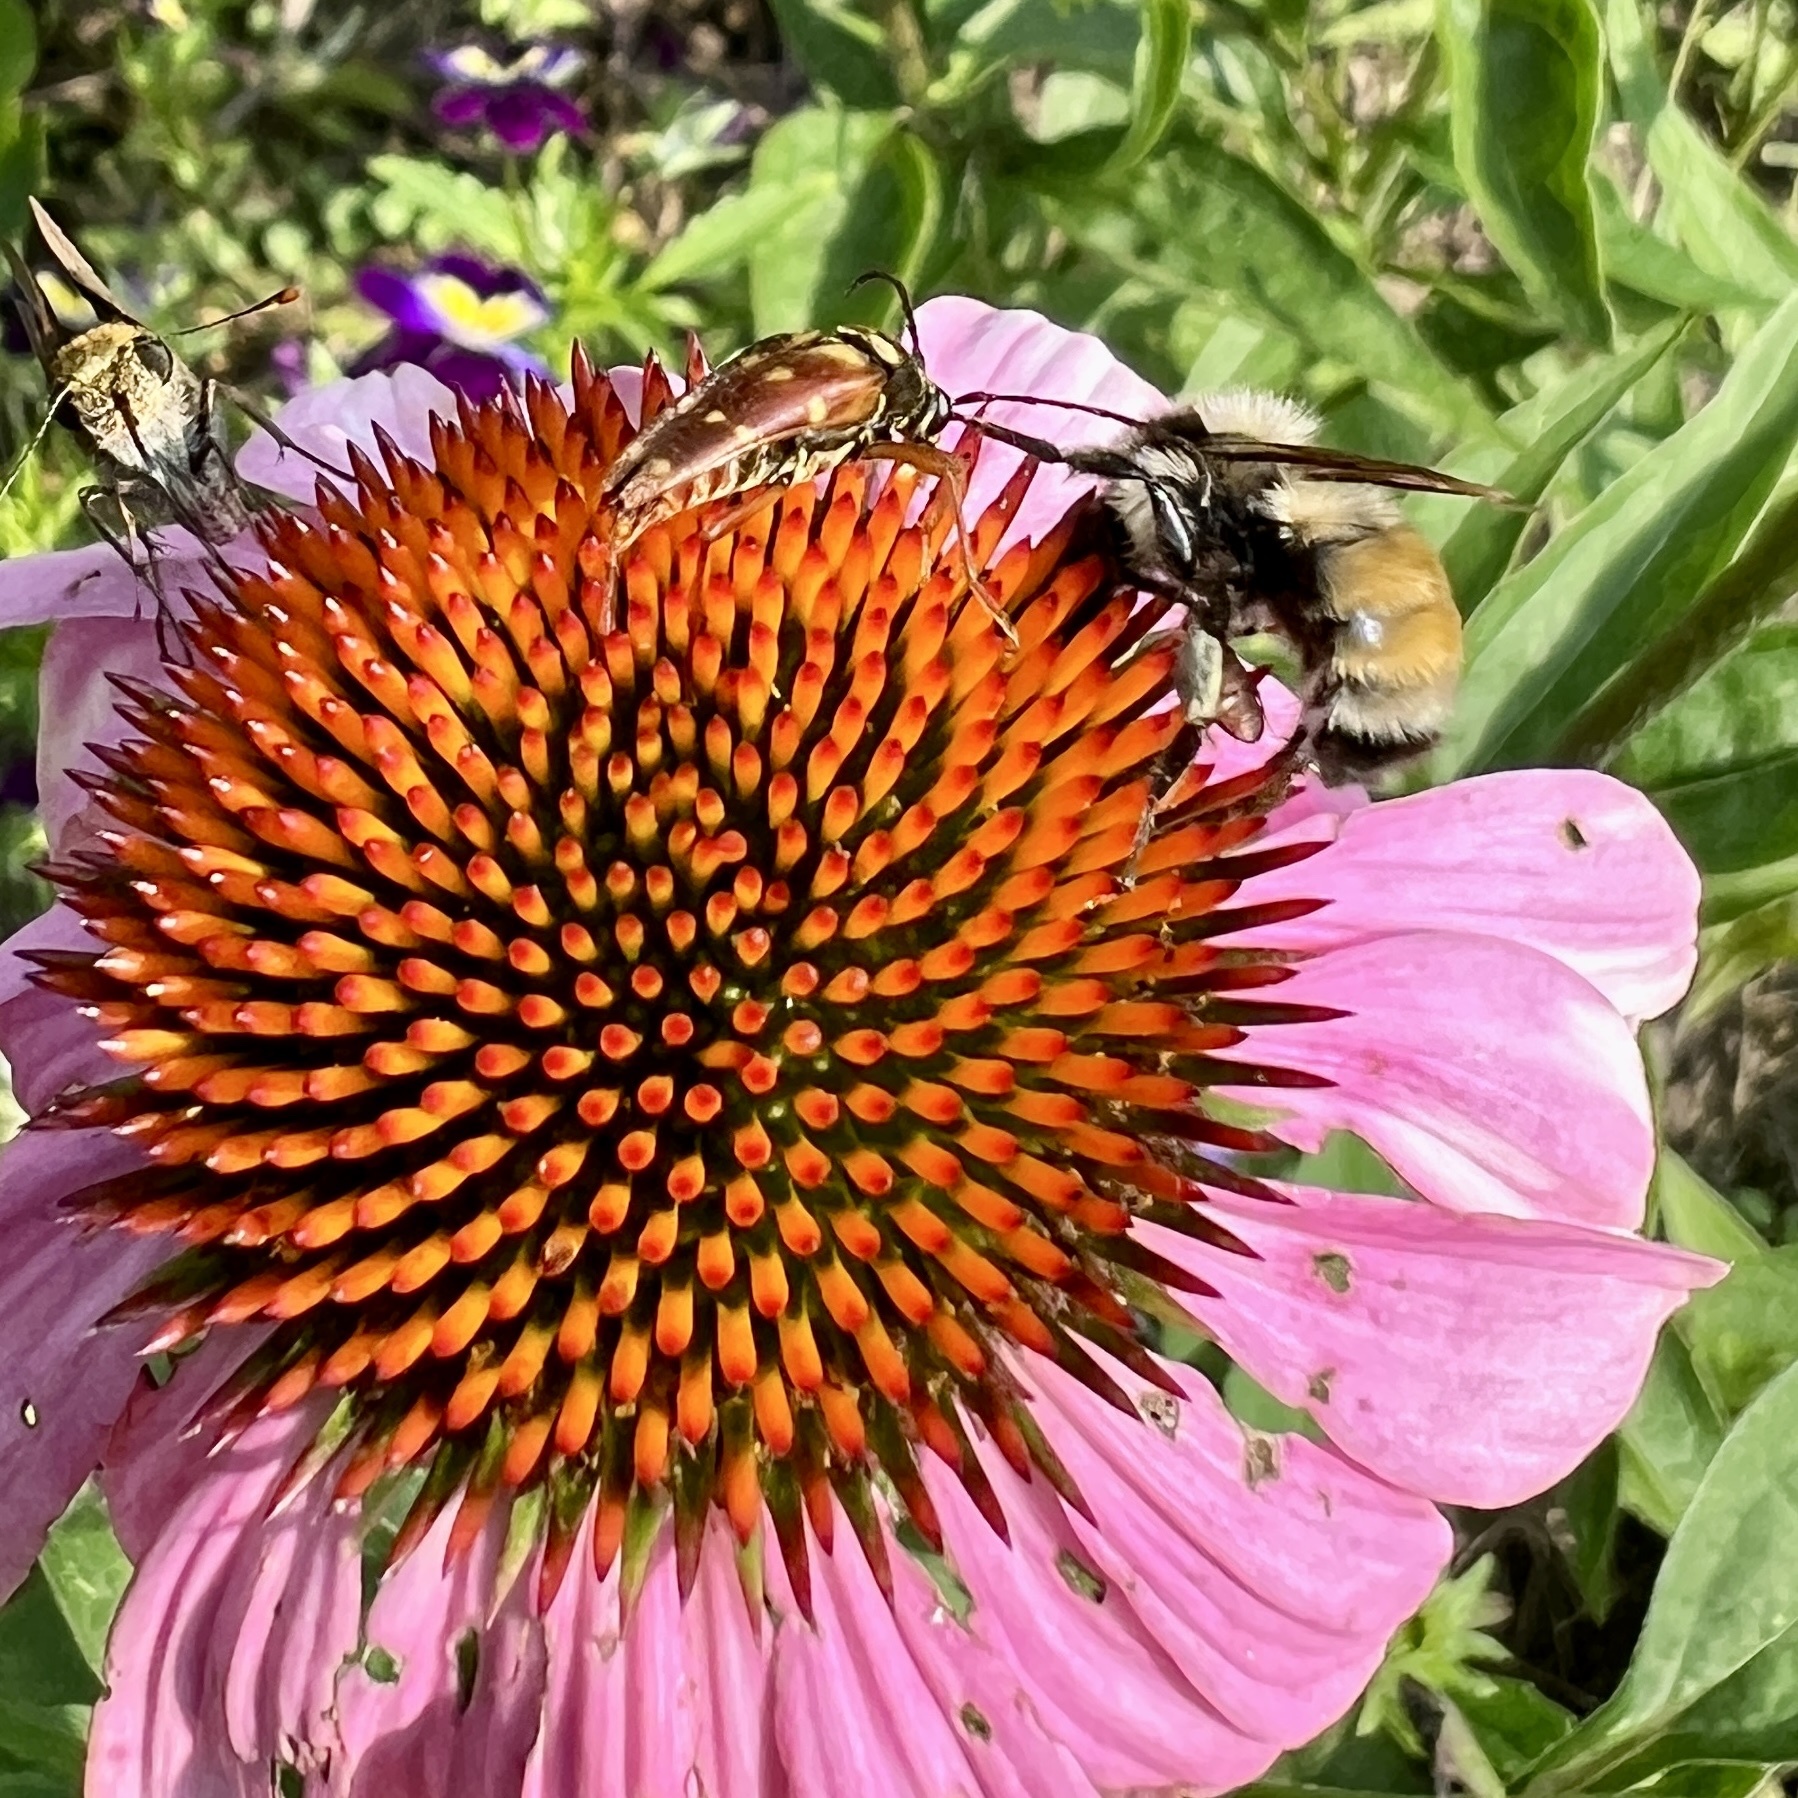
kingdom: Animalia
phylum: Arthropoda
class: Insecta
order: Hymenoptera
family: Apidae
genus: Bombus
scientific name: Bombus ternarius
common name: Tri-colored bumble bee
